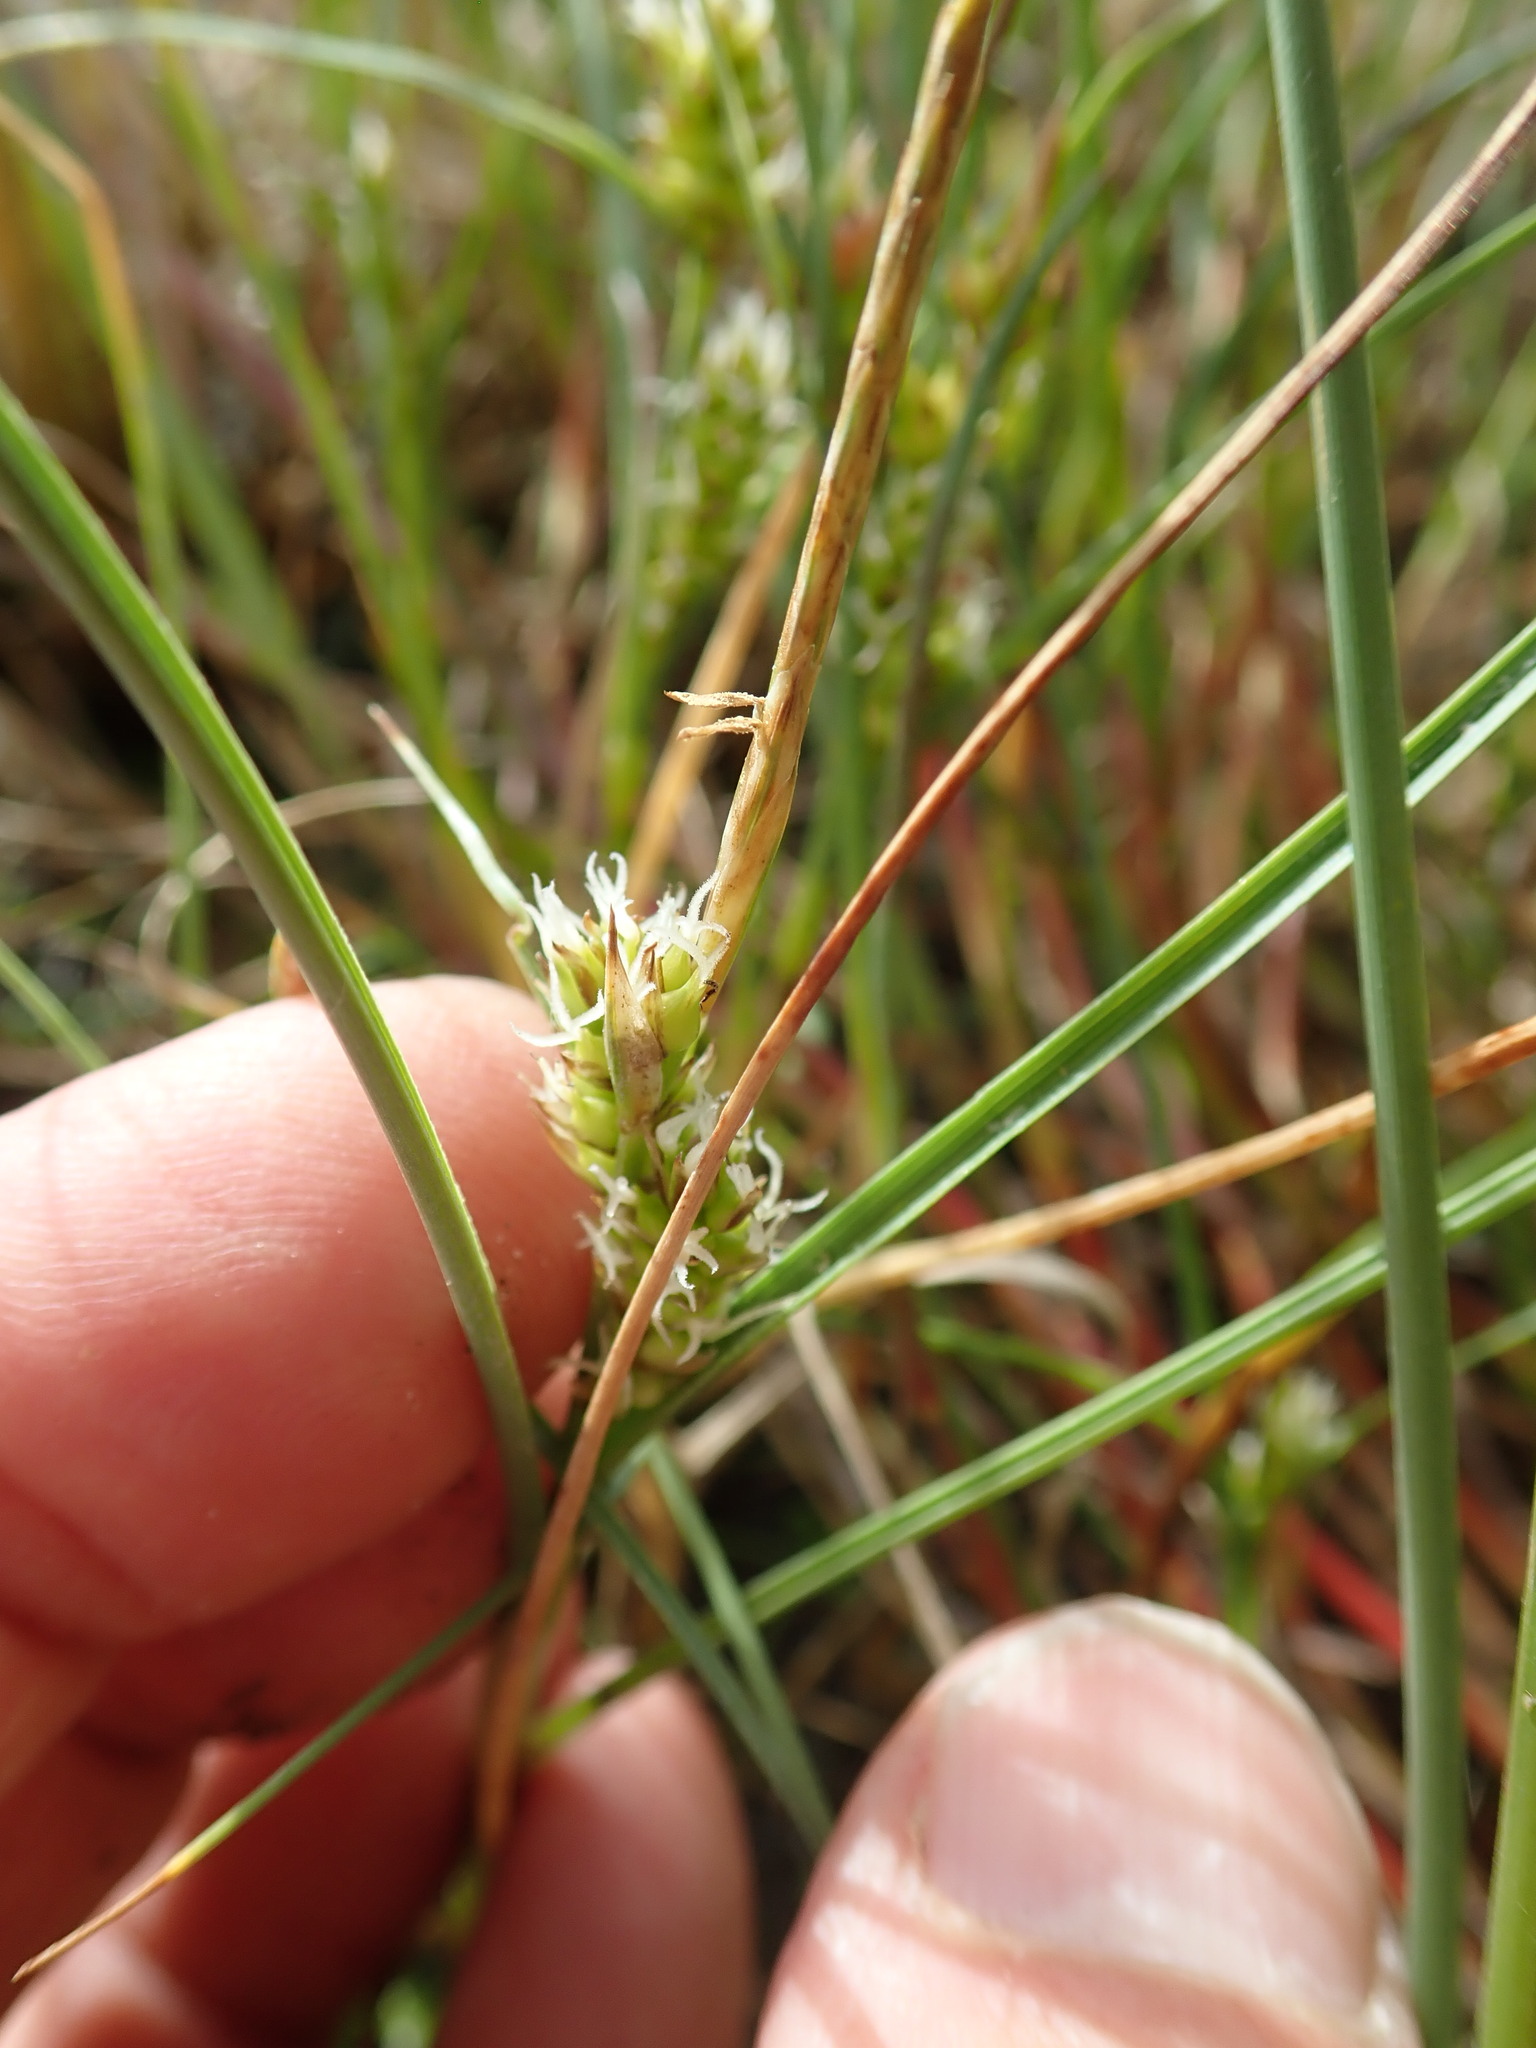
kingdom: Plantae
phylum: Tracheophyta
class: Liliopsida
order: Poales
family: Cyperaceae
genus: Carex
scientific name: Carex pumila
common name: Dwarf sedge
